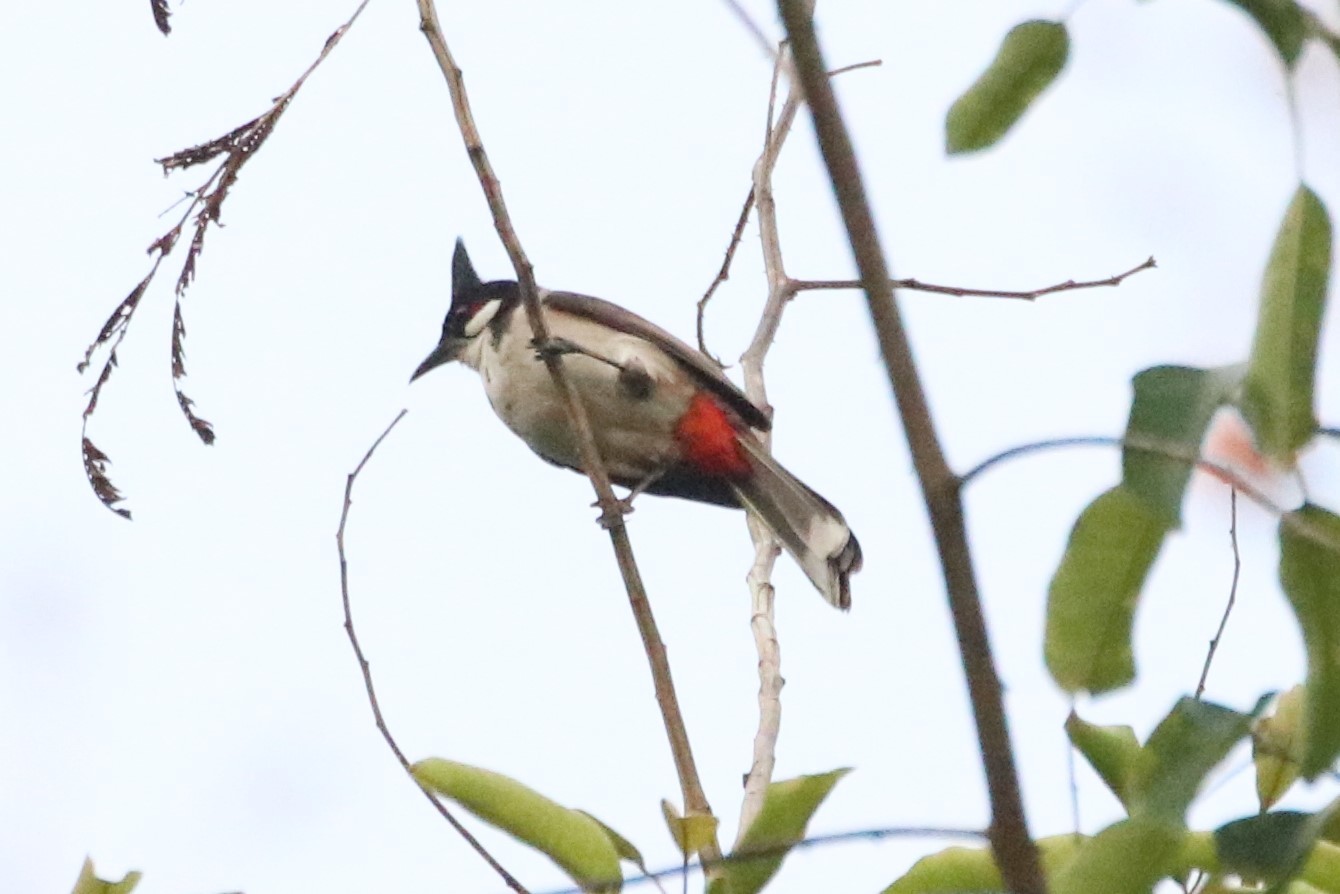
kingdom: Animalia
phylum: Chordata
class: Aves
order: Passeriformes
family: Pycnonotidae
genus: Pycnonotus
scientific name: Pycnonotus jocosus
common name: Red-whiskered bulbul
